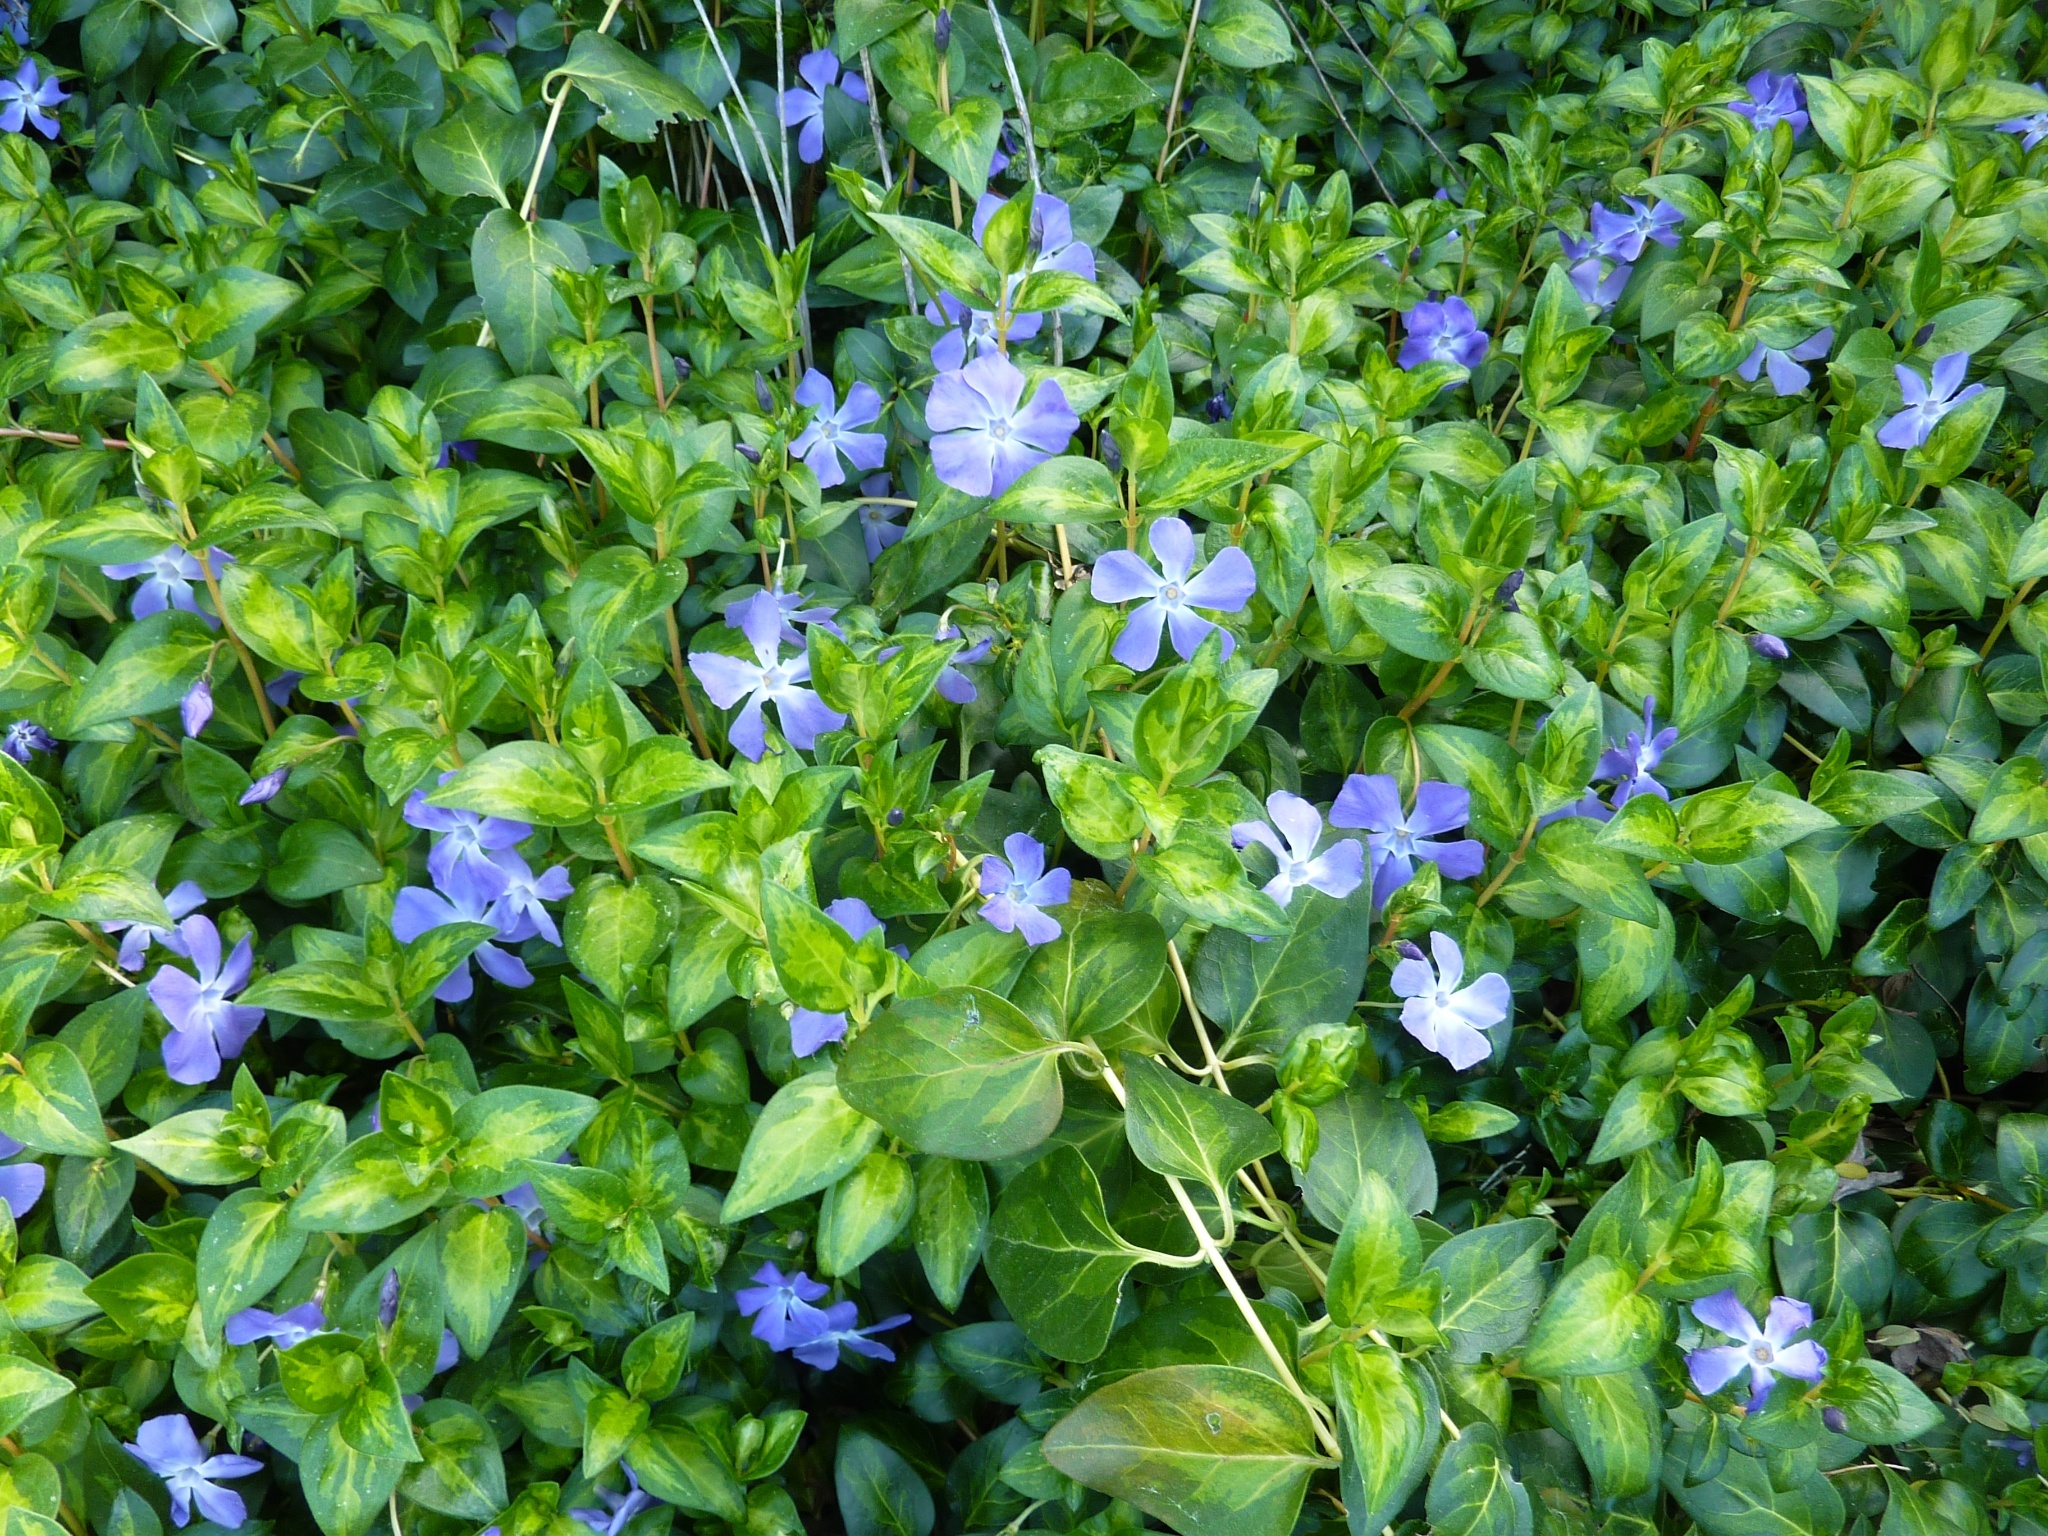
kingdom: Plantae
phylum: Tracheophyta
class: Magnoliopsida
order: Gentianales
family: Apocynaceae
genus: Vinca
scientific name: Vinca major
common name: Greater periwinkle
